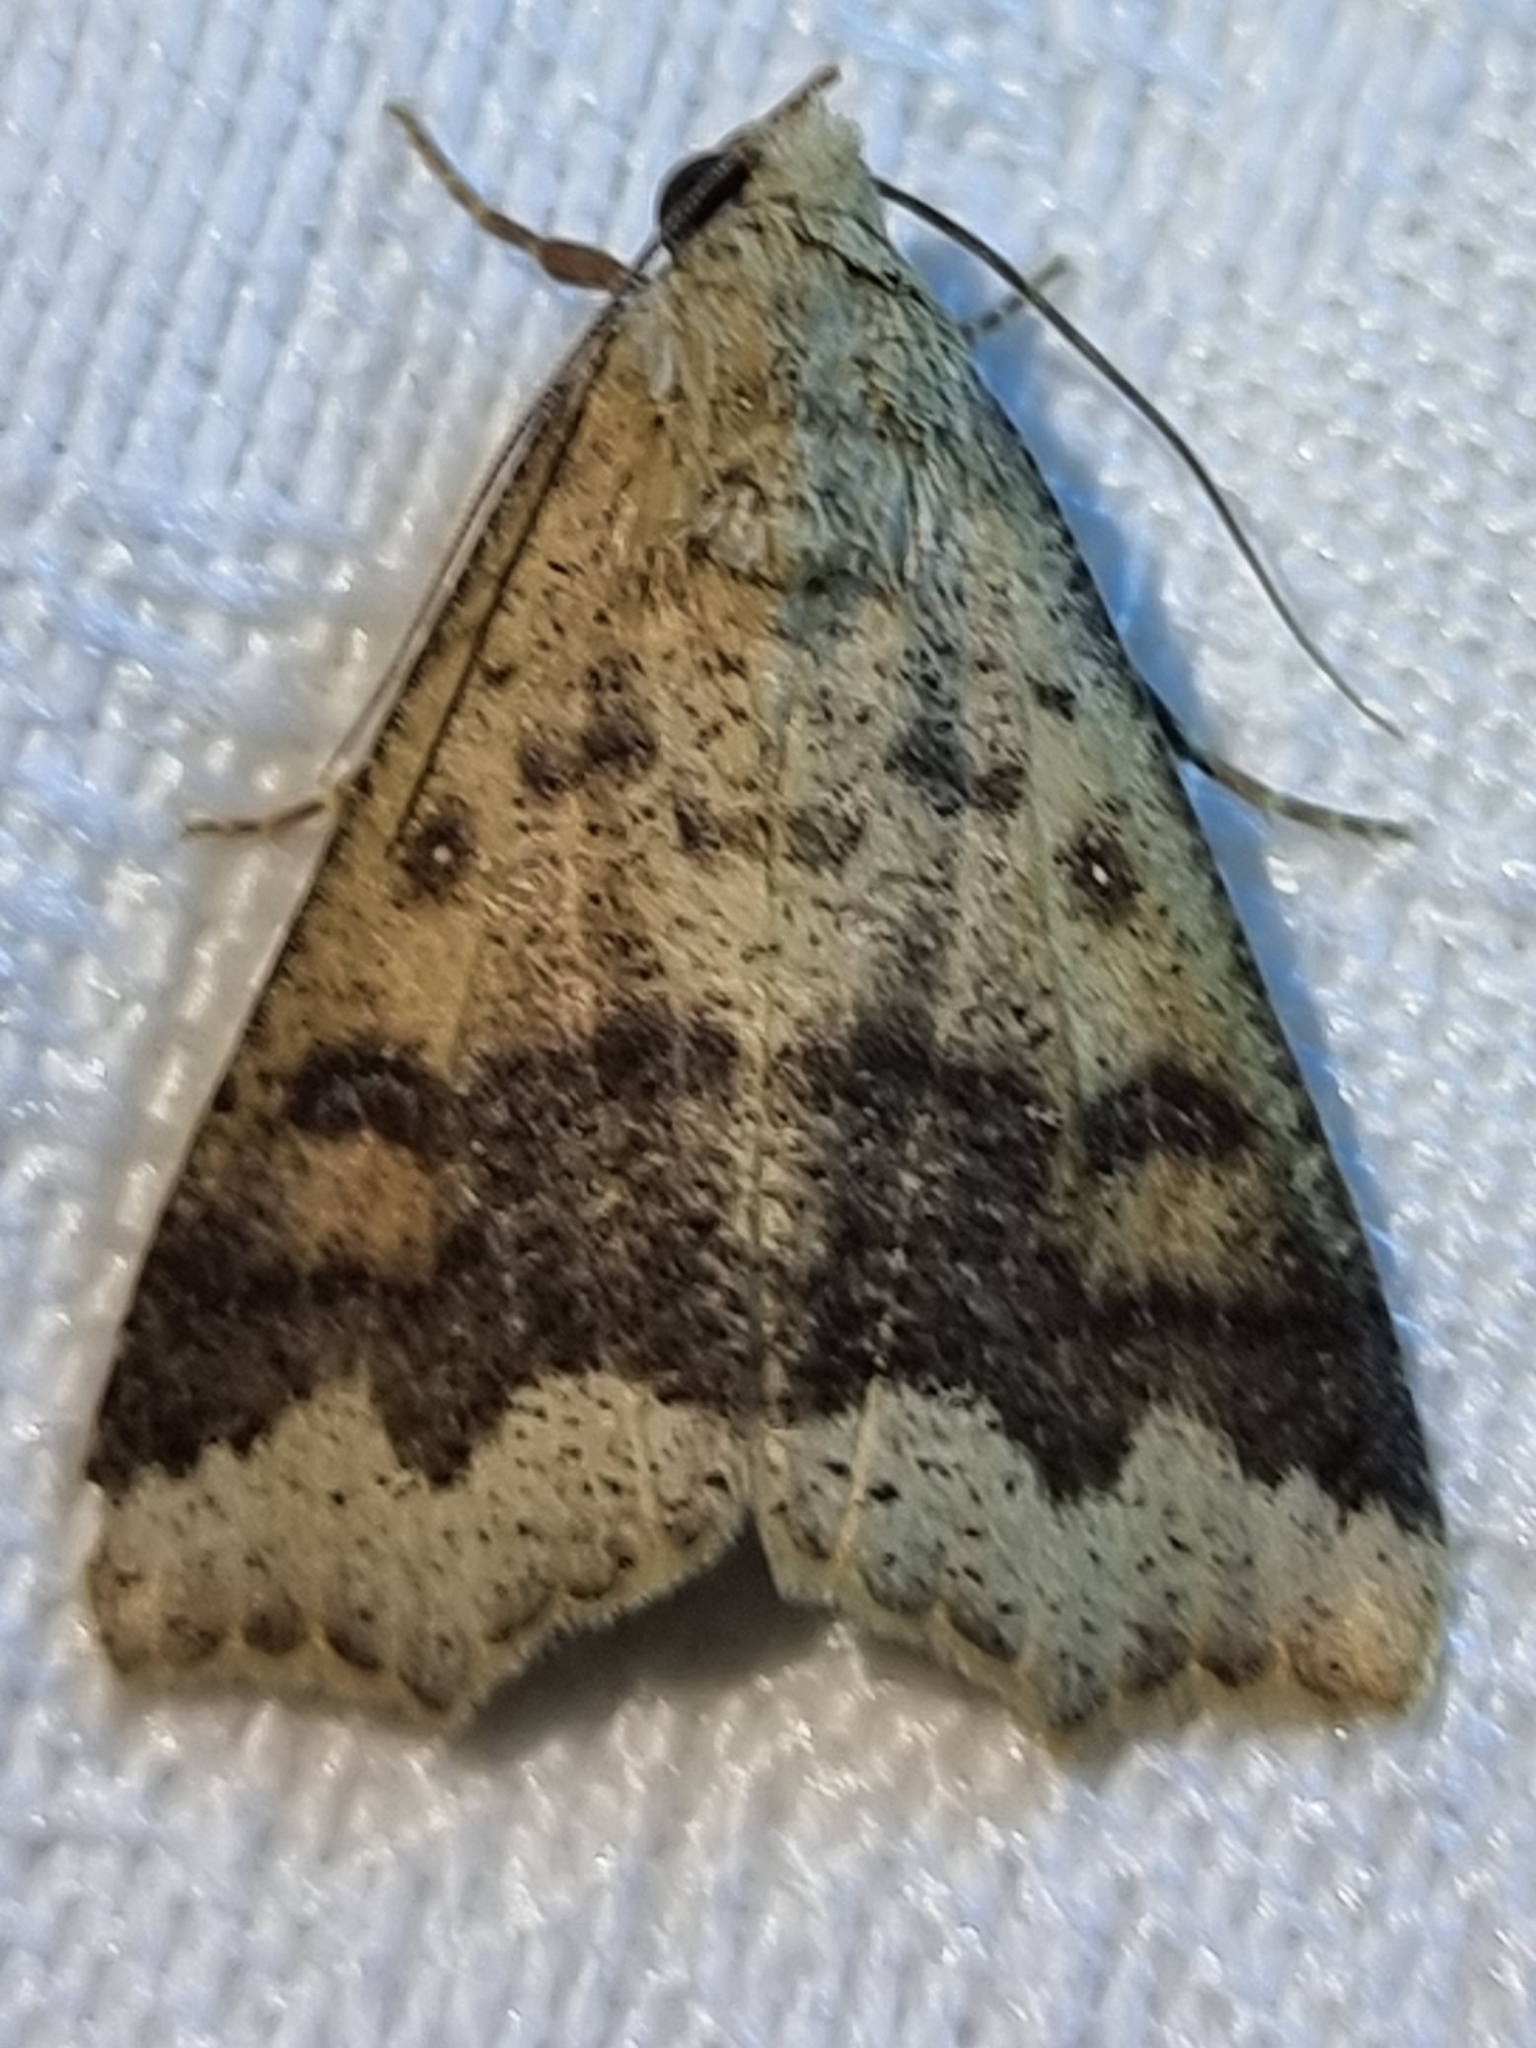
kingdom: Animalia
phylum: Arthropoda
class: Insecta
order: Lepidoptera
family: Erebidae
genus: Gonitis
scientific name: Gonitis involuta
